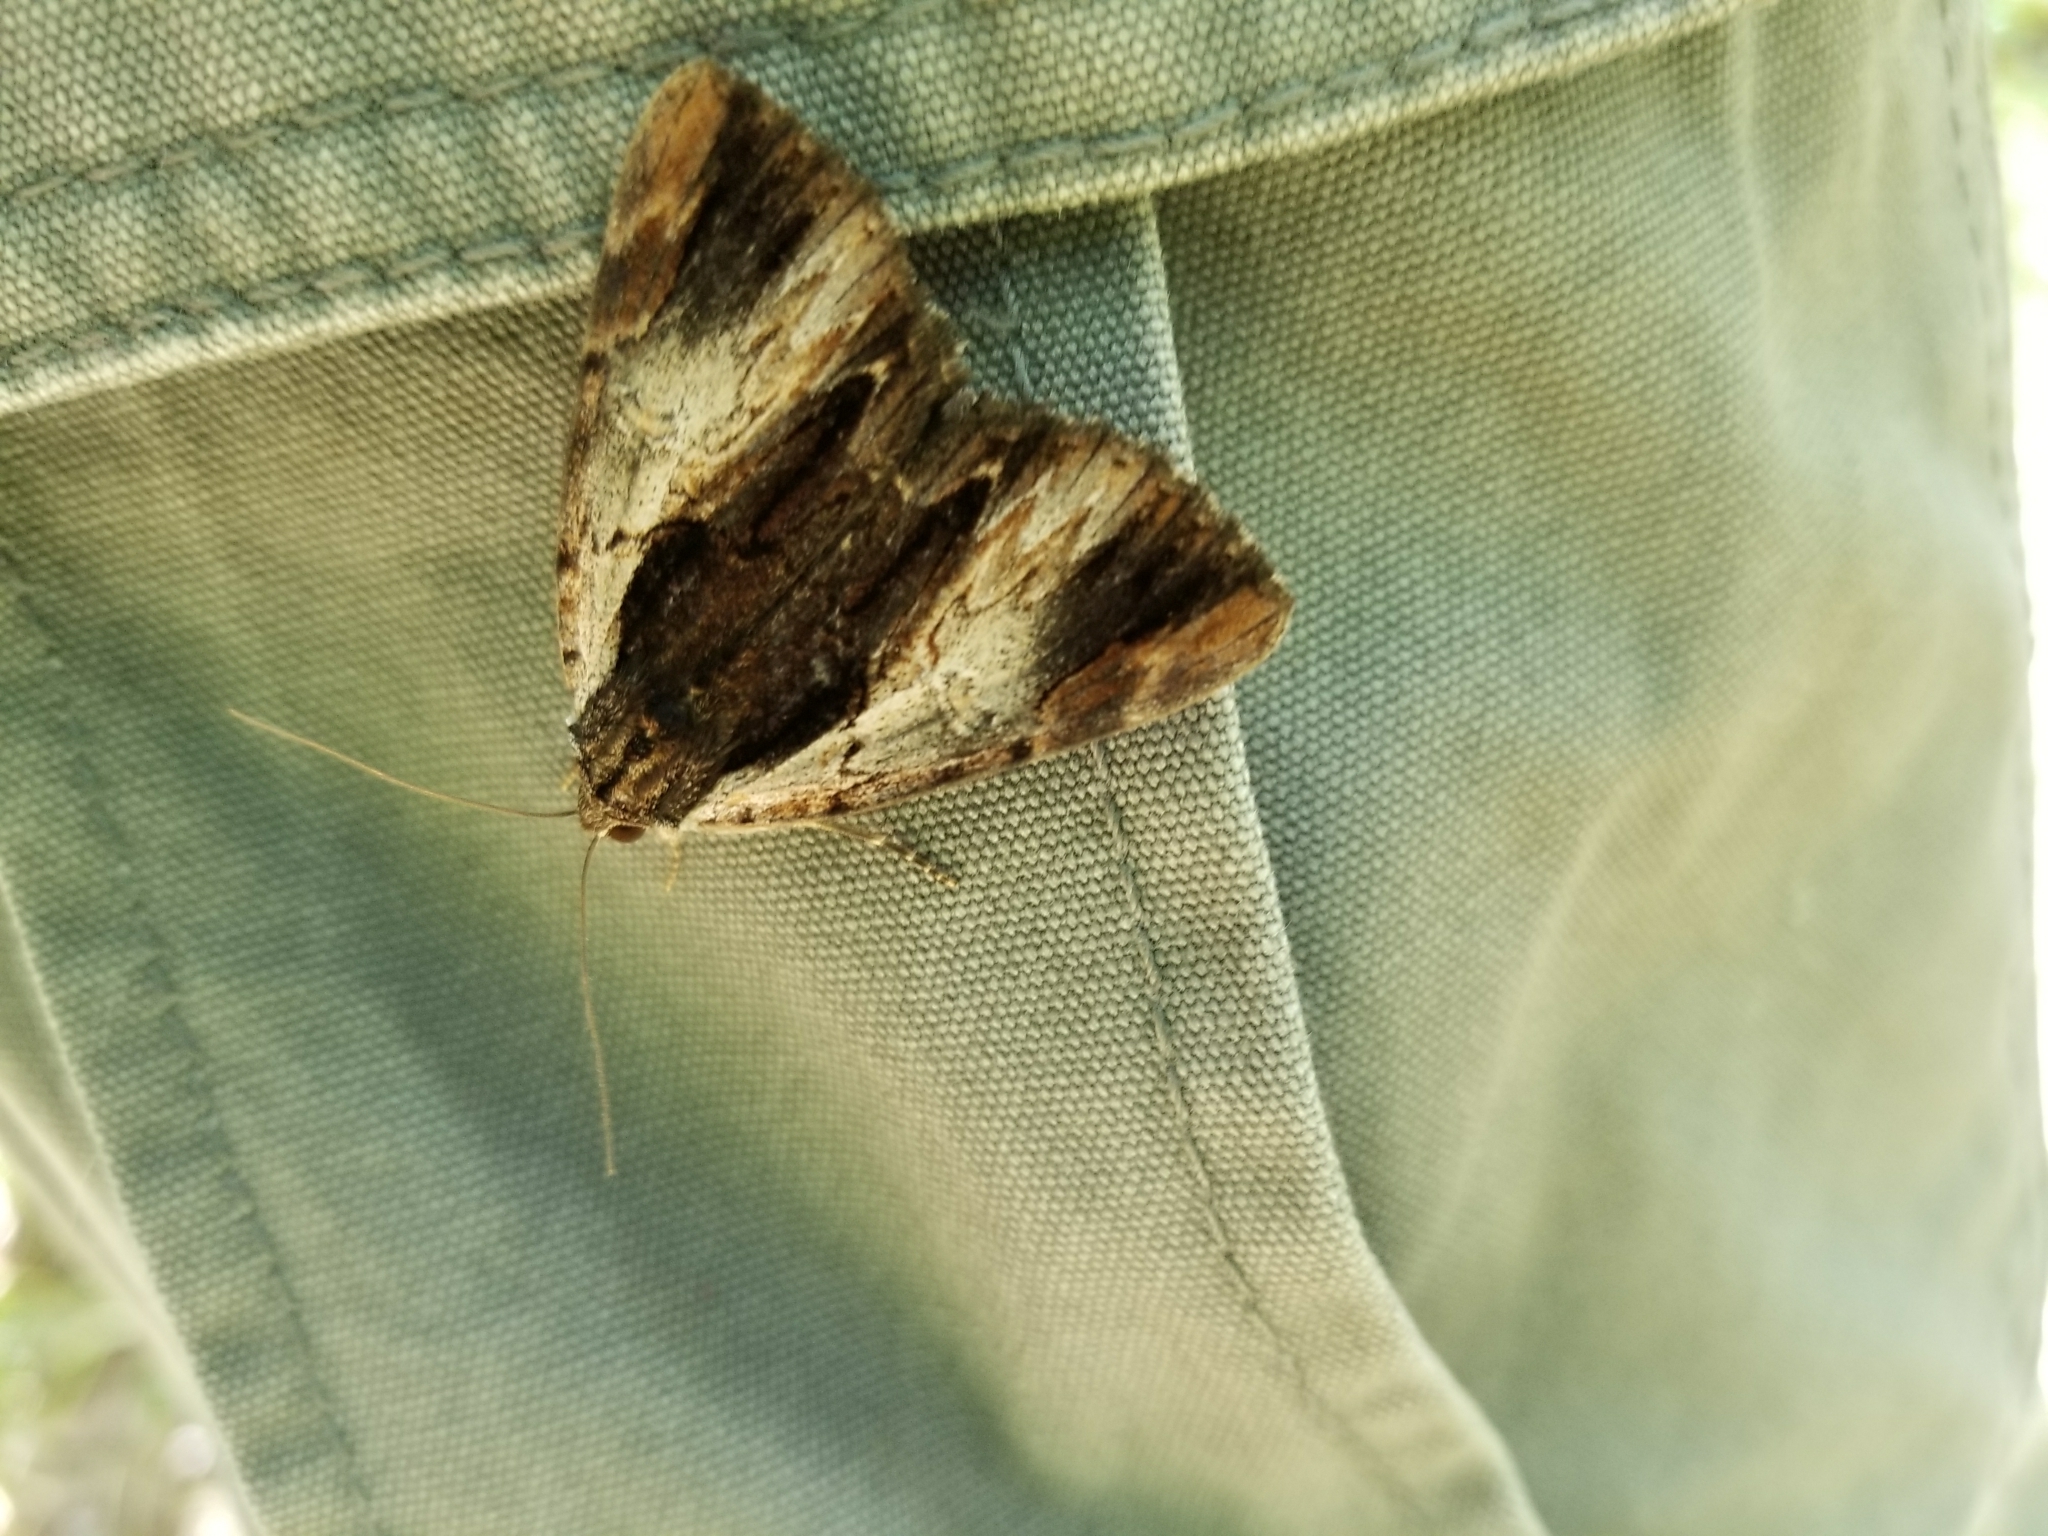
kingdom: Animalia
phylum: Arthropoda
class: Insecta
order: Lepidoptera
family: Erebidae
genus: Catocala
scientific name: Catocala ultronia
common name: Ultronia underwing
